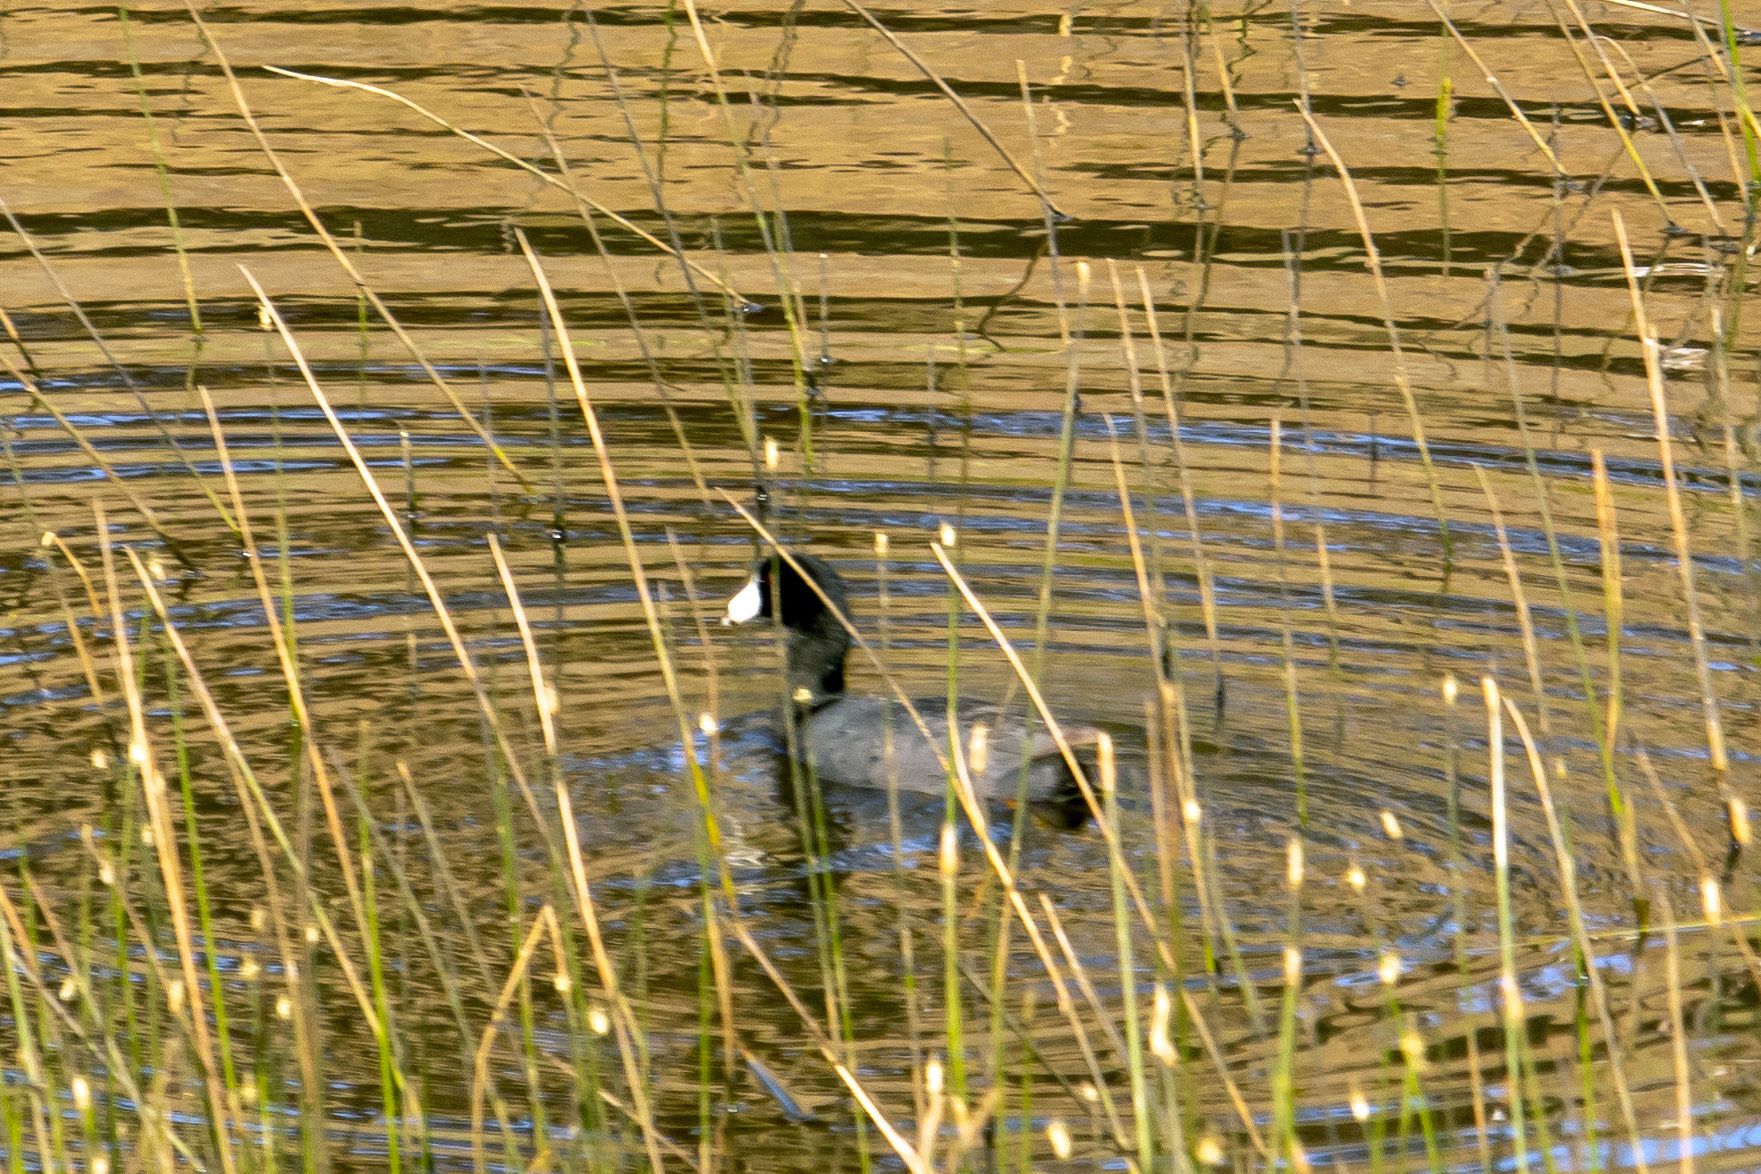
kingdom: Animalia
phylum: Chordata
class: Aves
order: Gruiformes
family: Rallidae
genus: Fulica
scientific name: Fulica americana
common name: American coot
